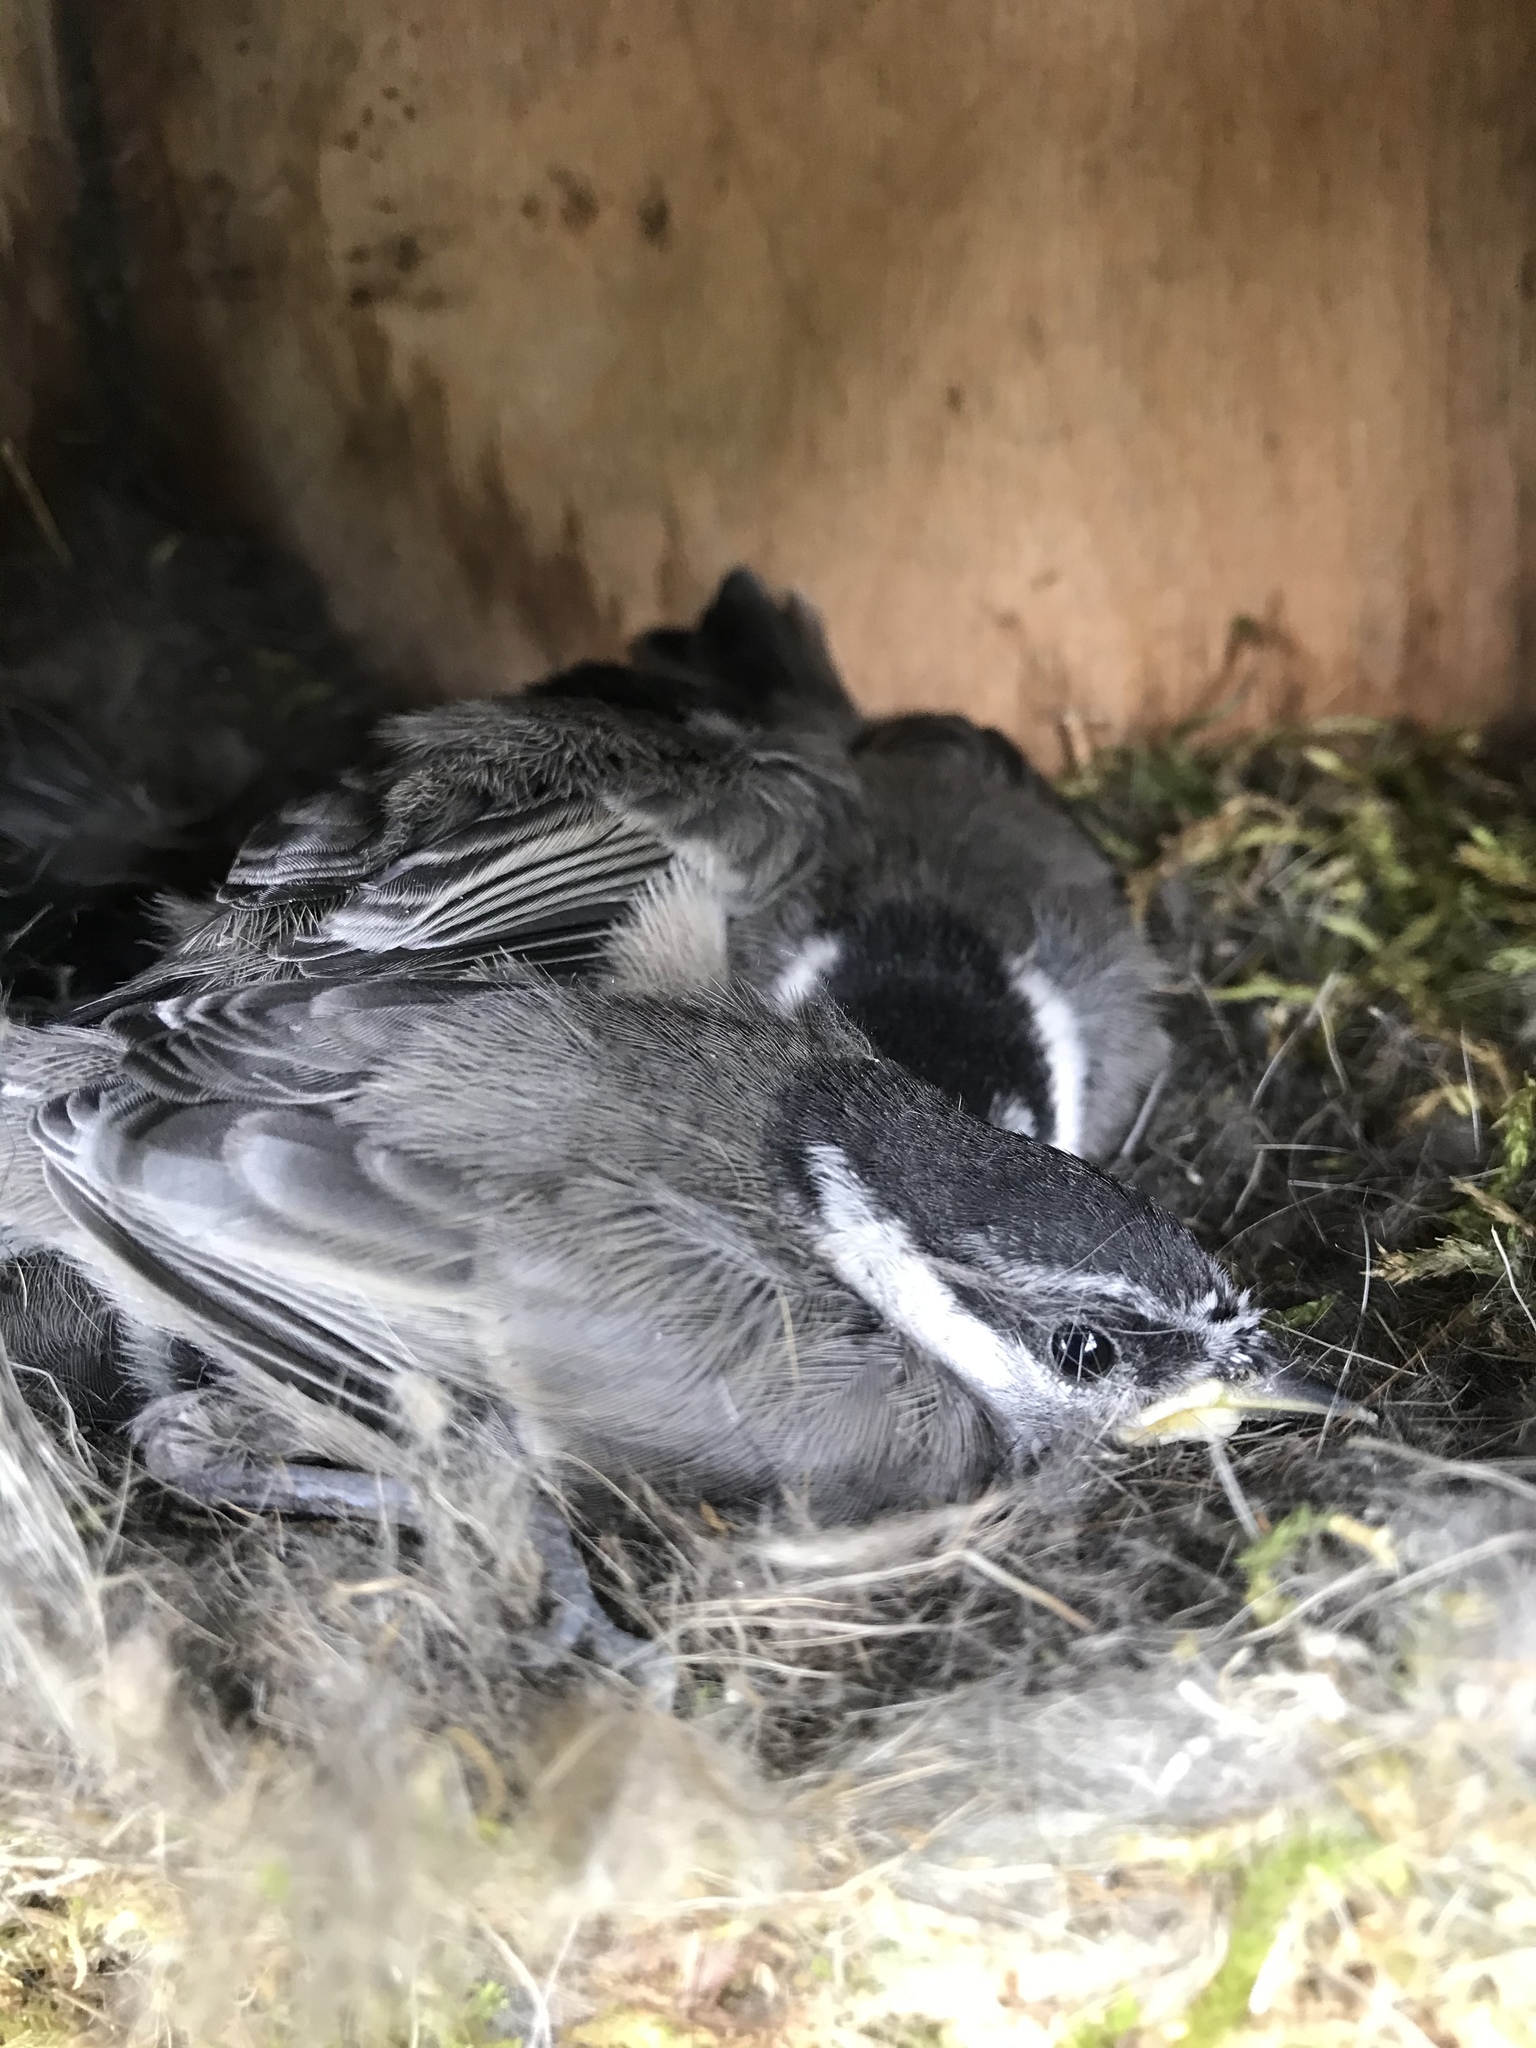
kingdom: Animalia
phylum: Chordata
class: Aves
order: Passeriformes
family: Paridae
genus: Poecile
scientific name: Poecile gambeli
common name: Mountain chickadee
